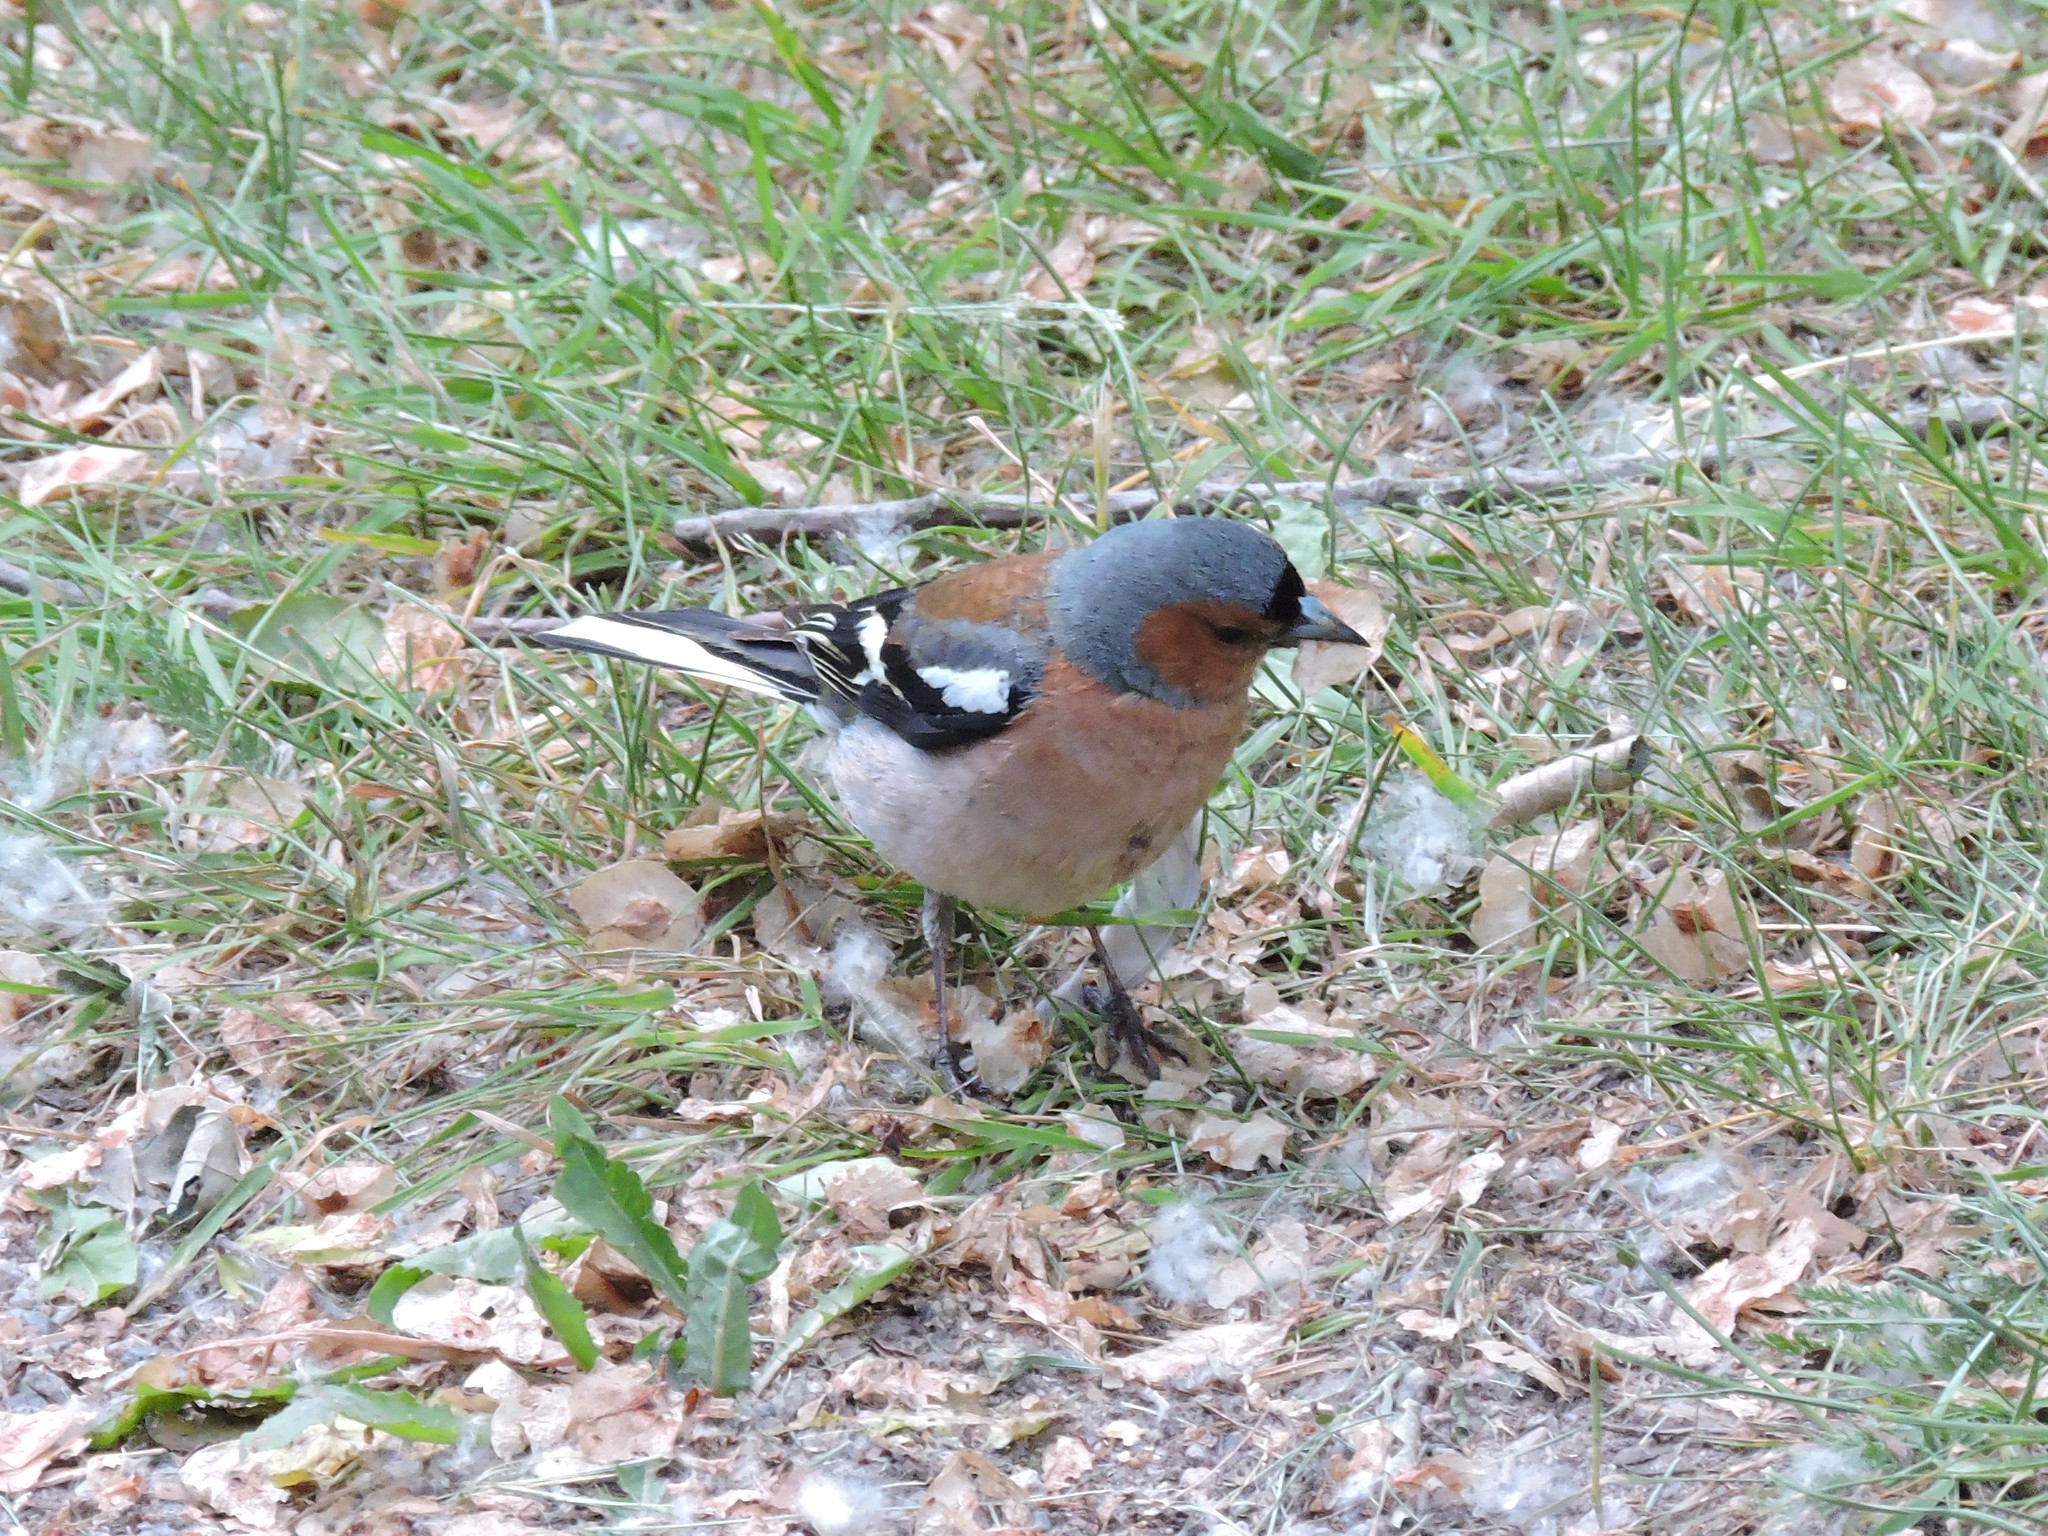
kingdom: Animalia
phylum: Chordata
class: Aves
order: Passeriformes
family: Fringillidae
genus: Fringilla
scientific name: Fringilla coelebs
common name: Common chaffinch
